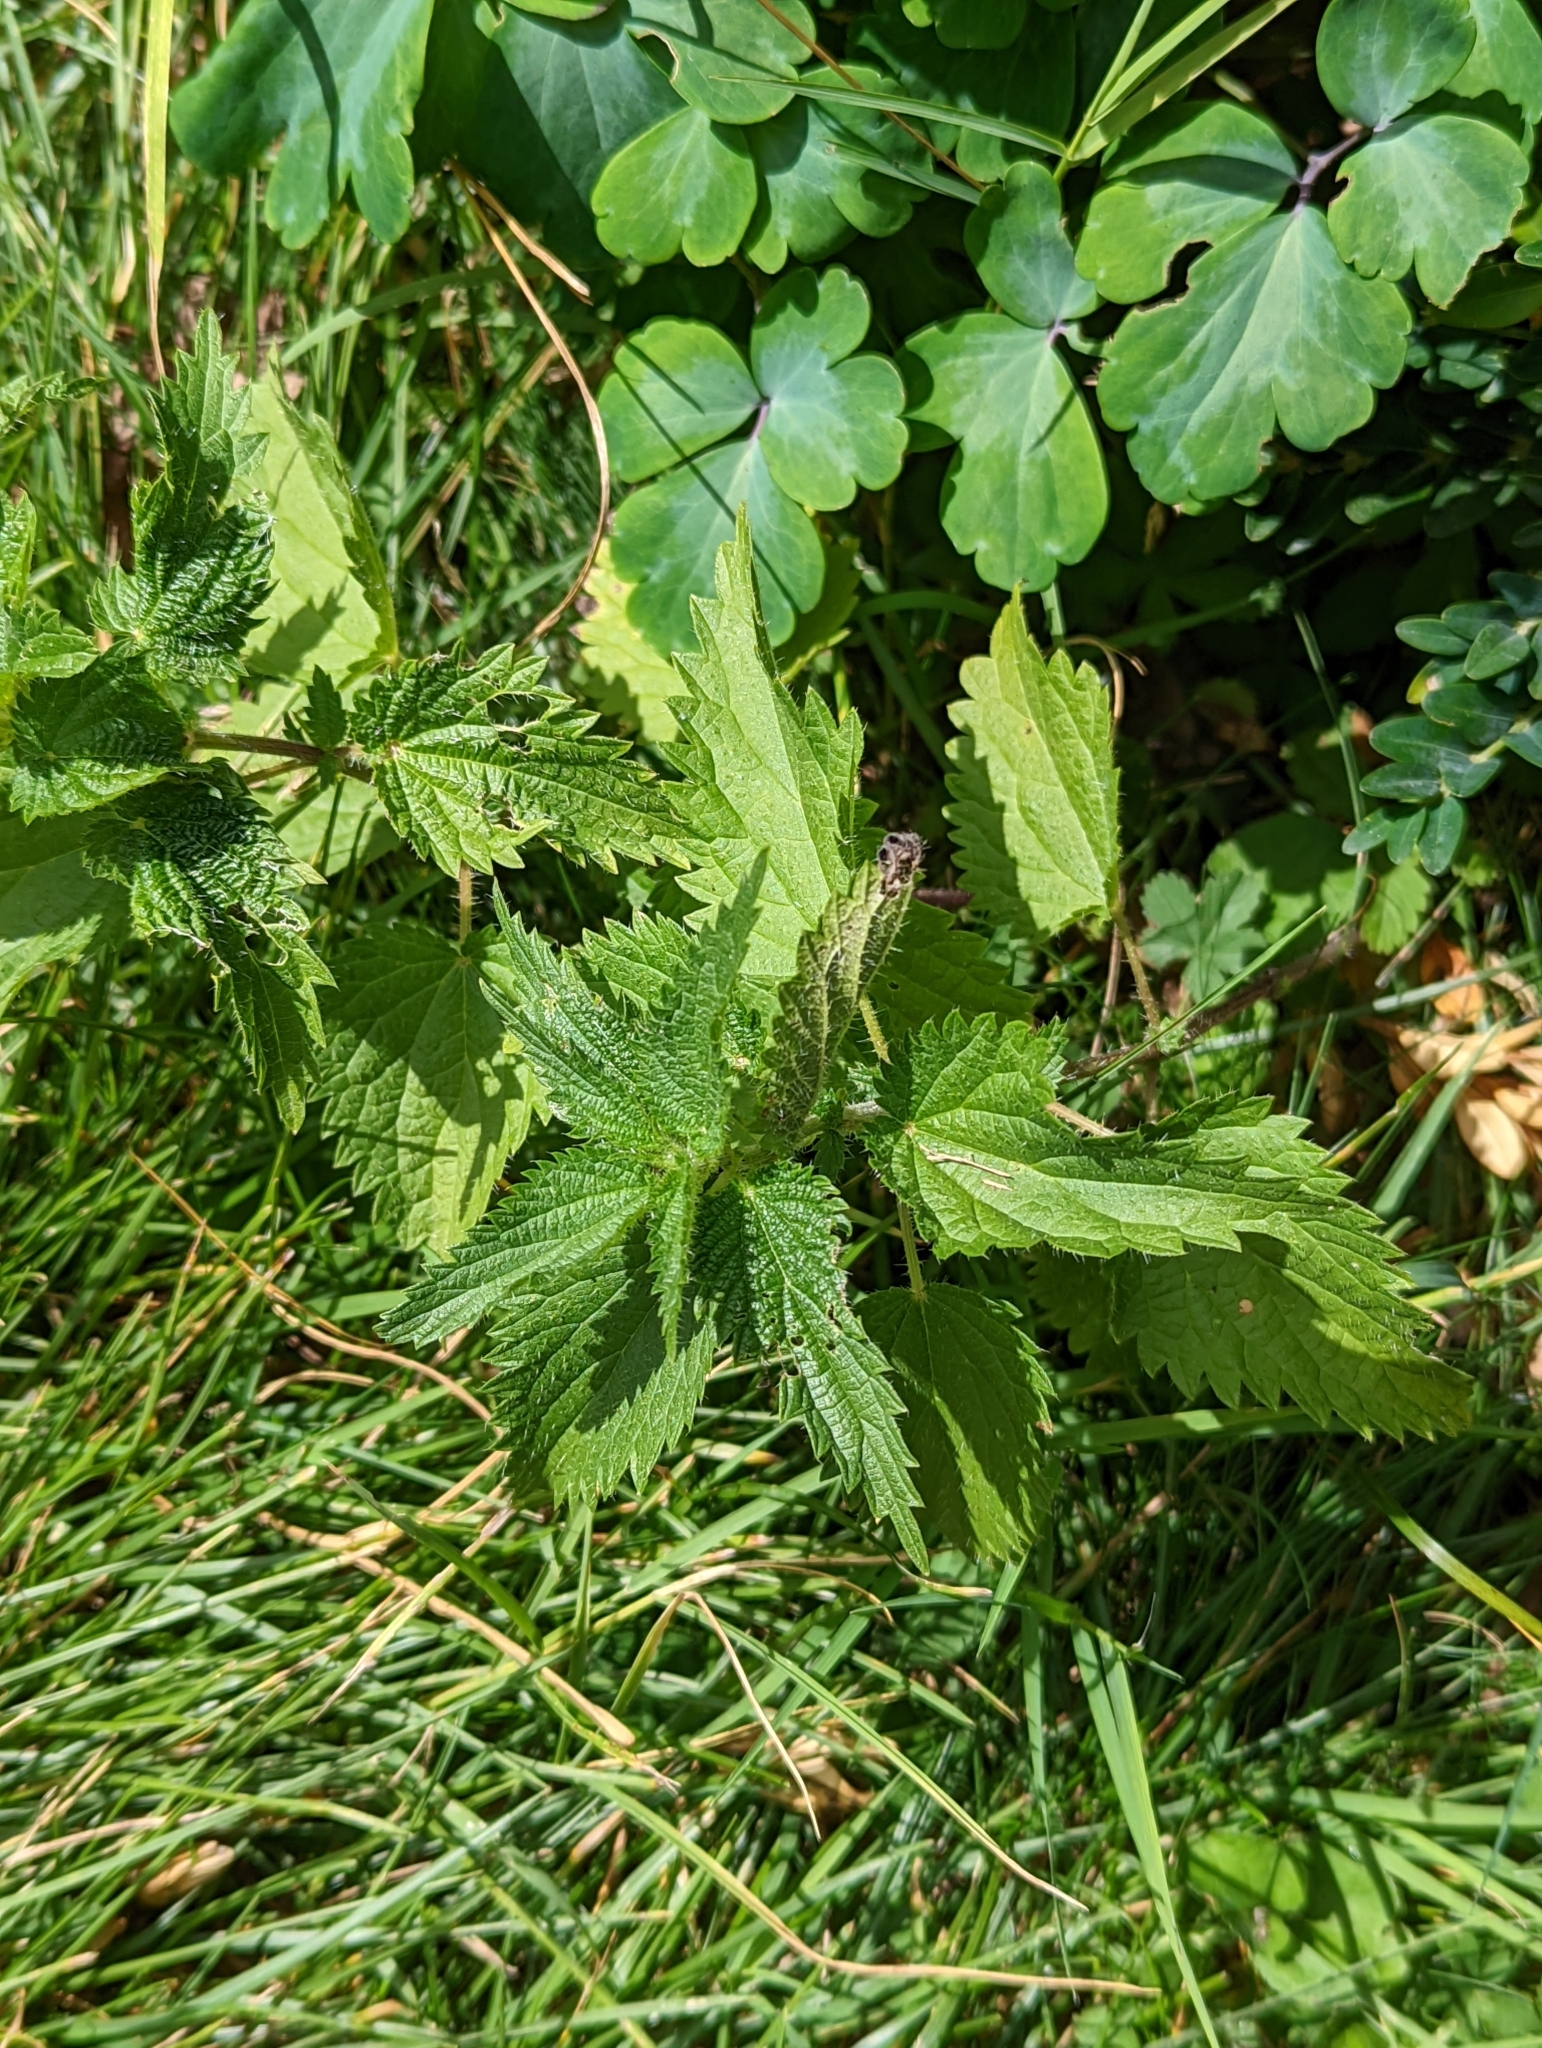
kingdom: Plantae
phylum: Tracheophyta
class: Magnoliopsida
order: Rosales
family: Urticaceae
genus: Urtica
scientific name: Urtica dioica
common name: Common nettle
